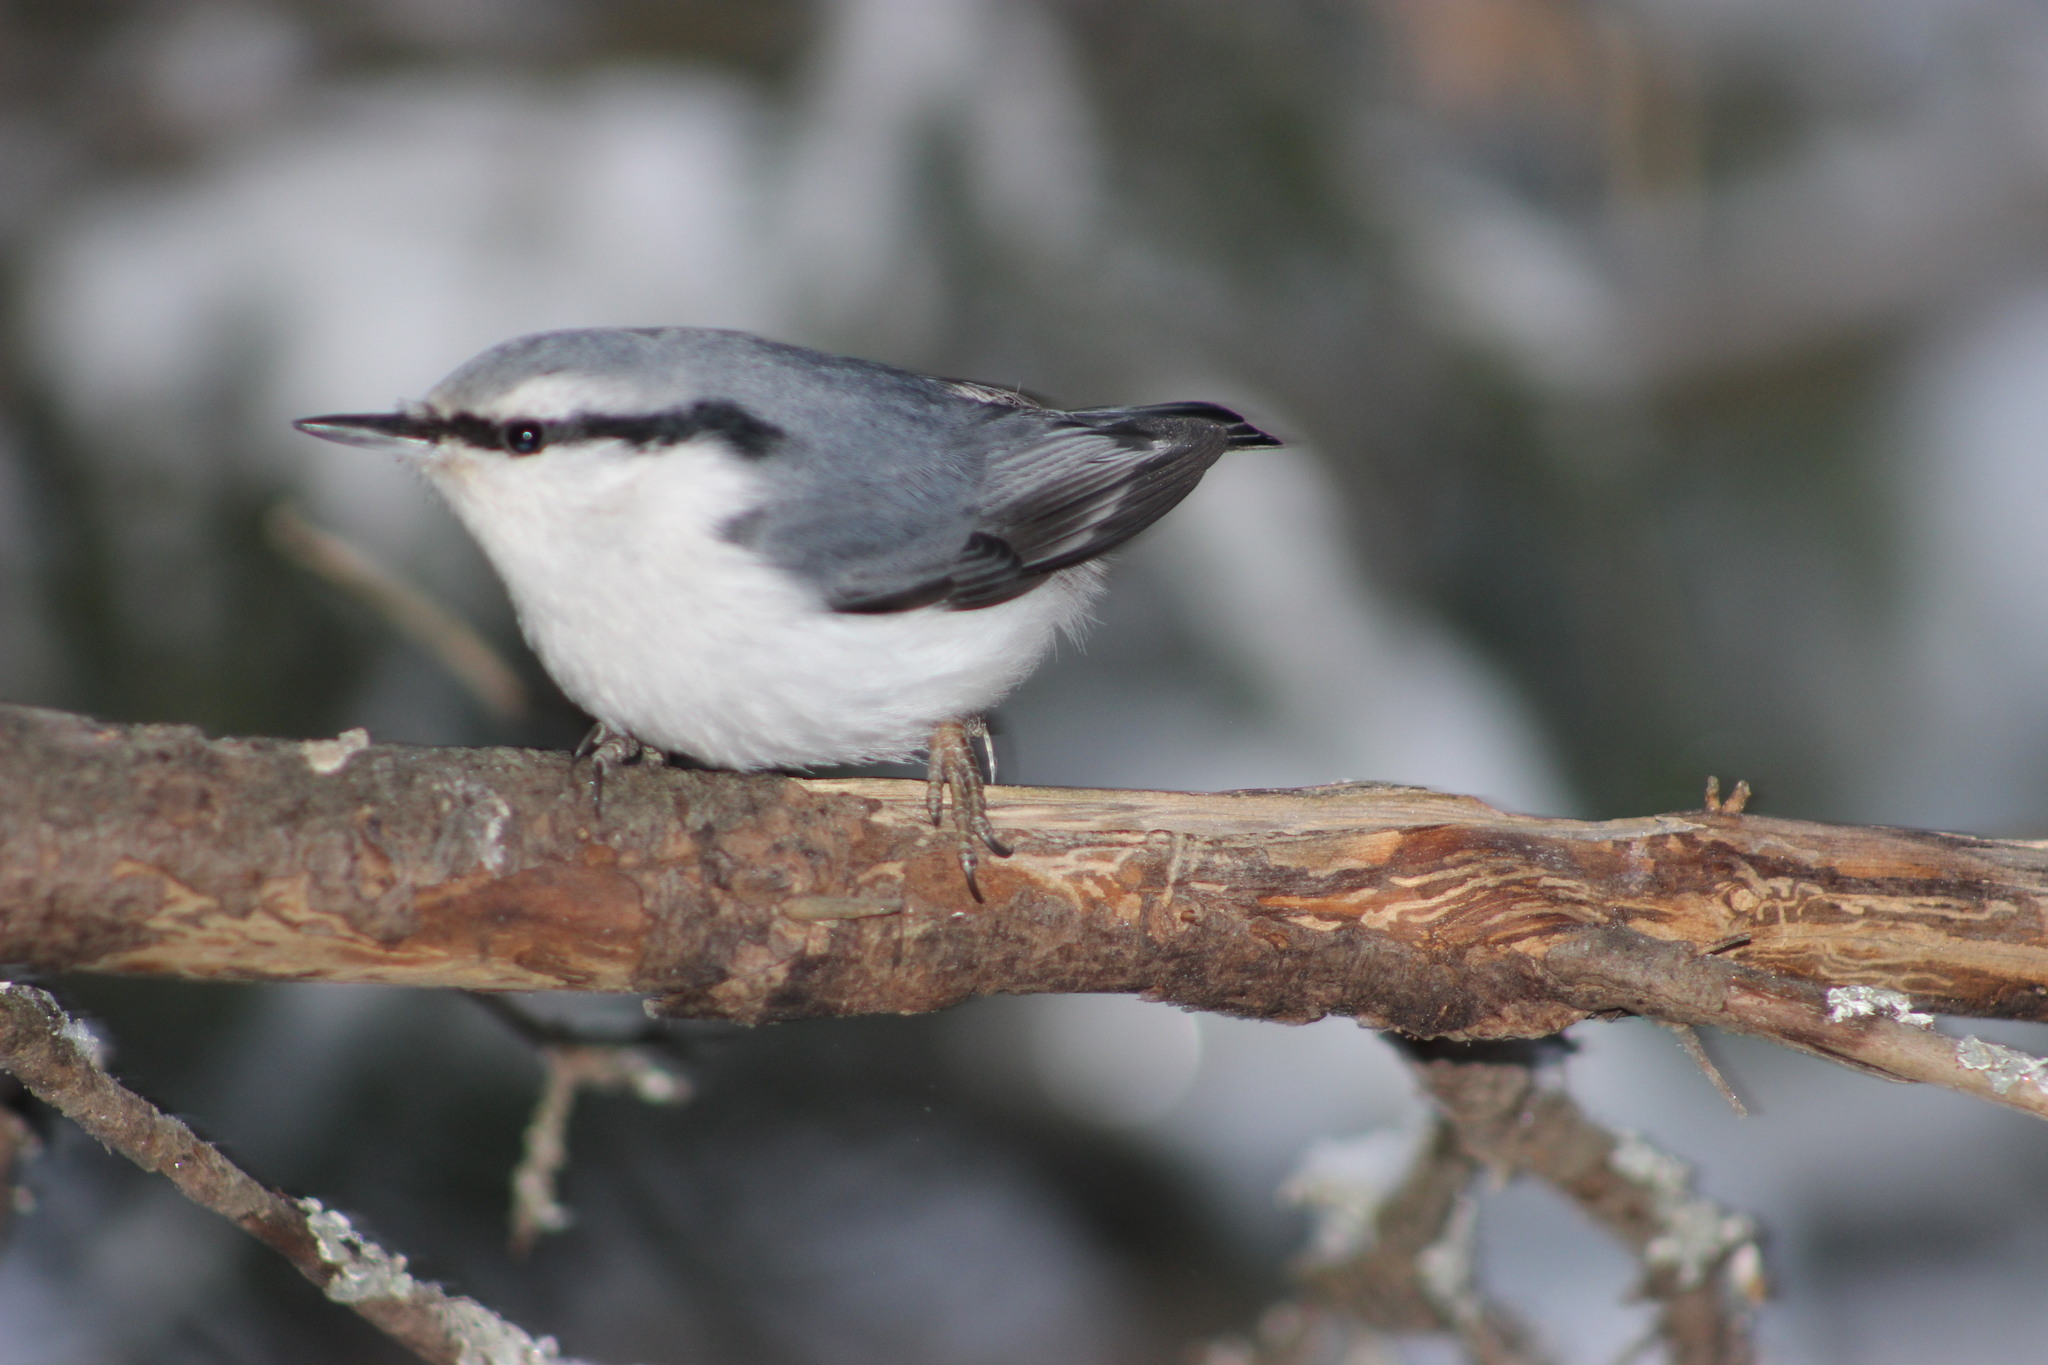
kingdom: Animalia
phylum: Chordata
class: Aves
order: Passeriformes
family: Sittidae
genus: Sitta
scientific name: Sitta europaea
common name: Eurasian nuthatch
